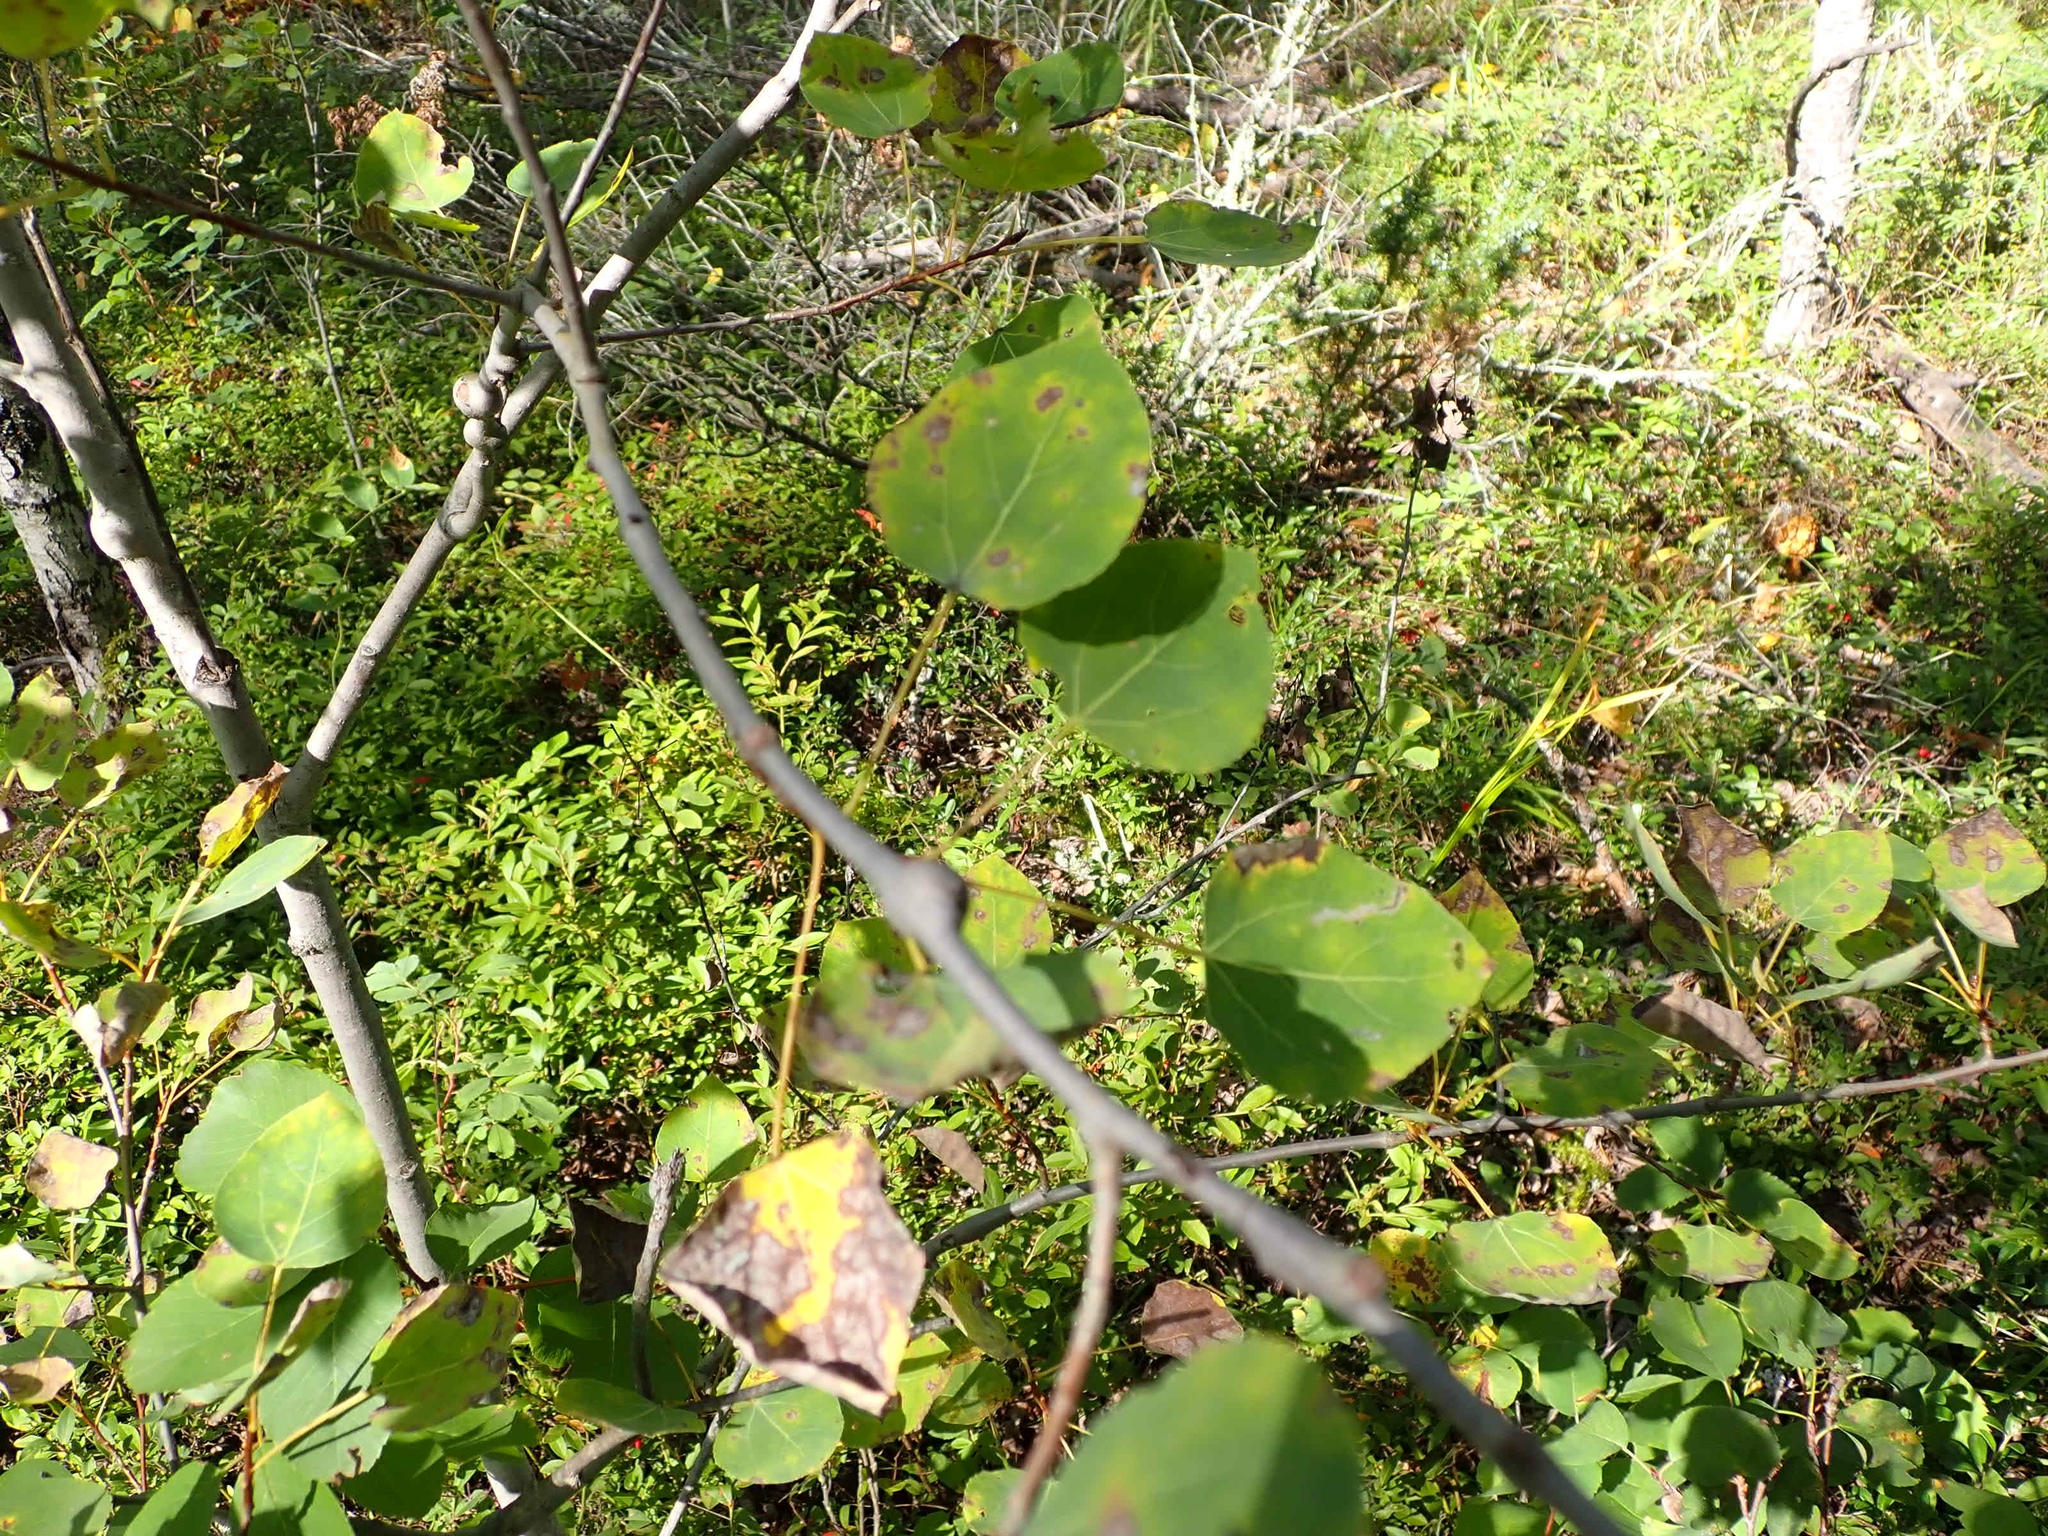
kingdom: Plantae
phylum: Tracheophyta
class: Magnoliopsida
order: Malpighiales
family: Salicaceae
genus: Populus
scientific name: Populus tremuloides
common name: Quaking aspen
